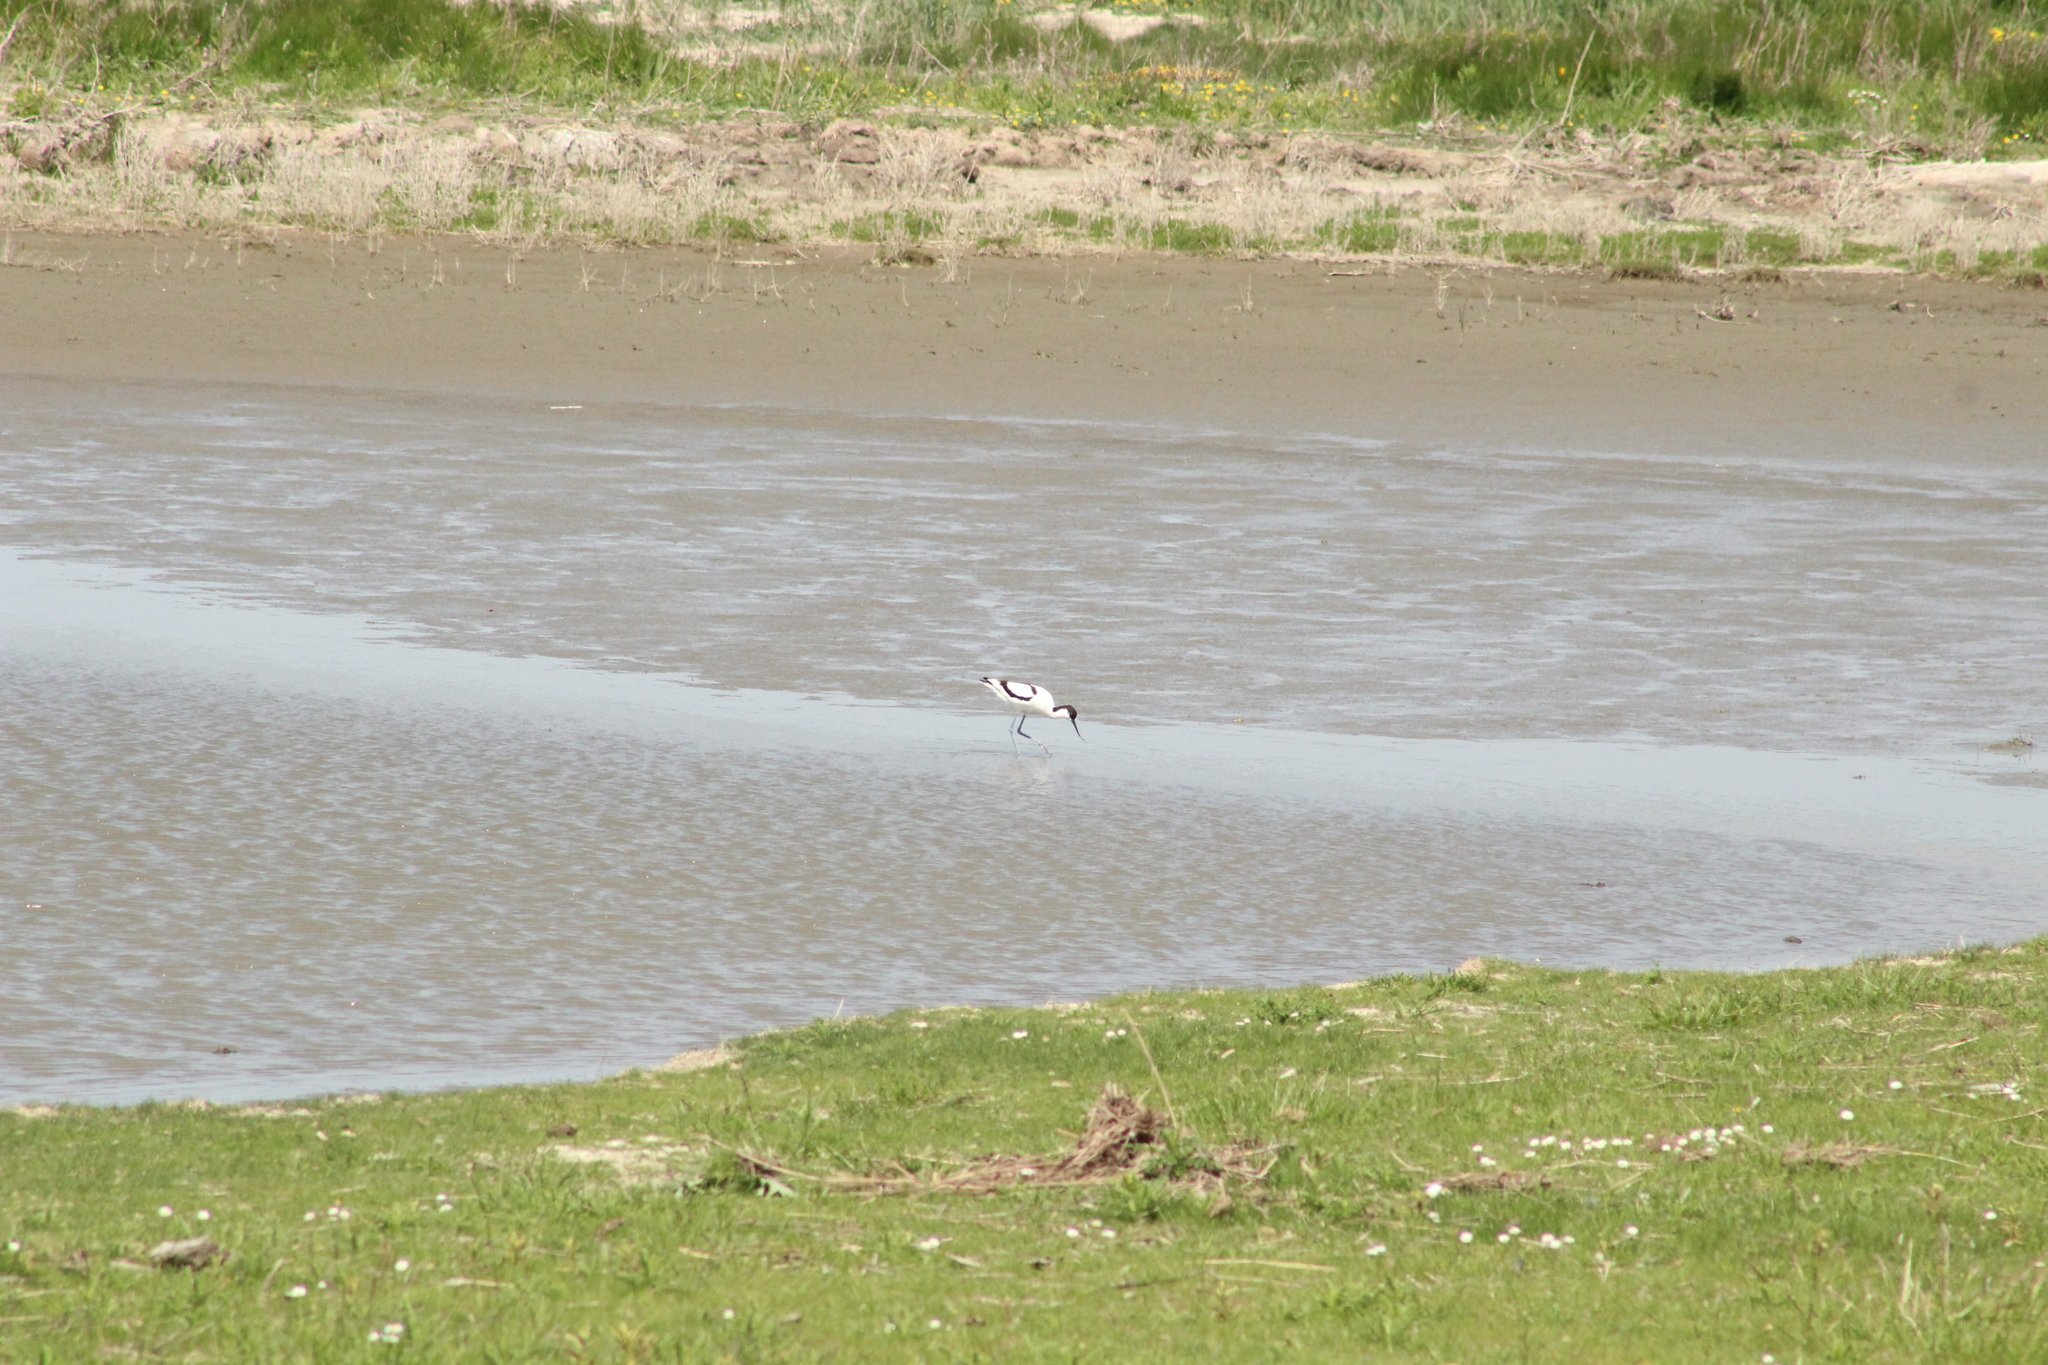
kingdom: Animalia
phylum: Chordata
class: Aves
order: Charadriiformes
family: Recurvirostridae
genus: Recurvirostra
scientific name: Recurvirostra avosetta
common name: Pied avocet
